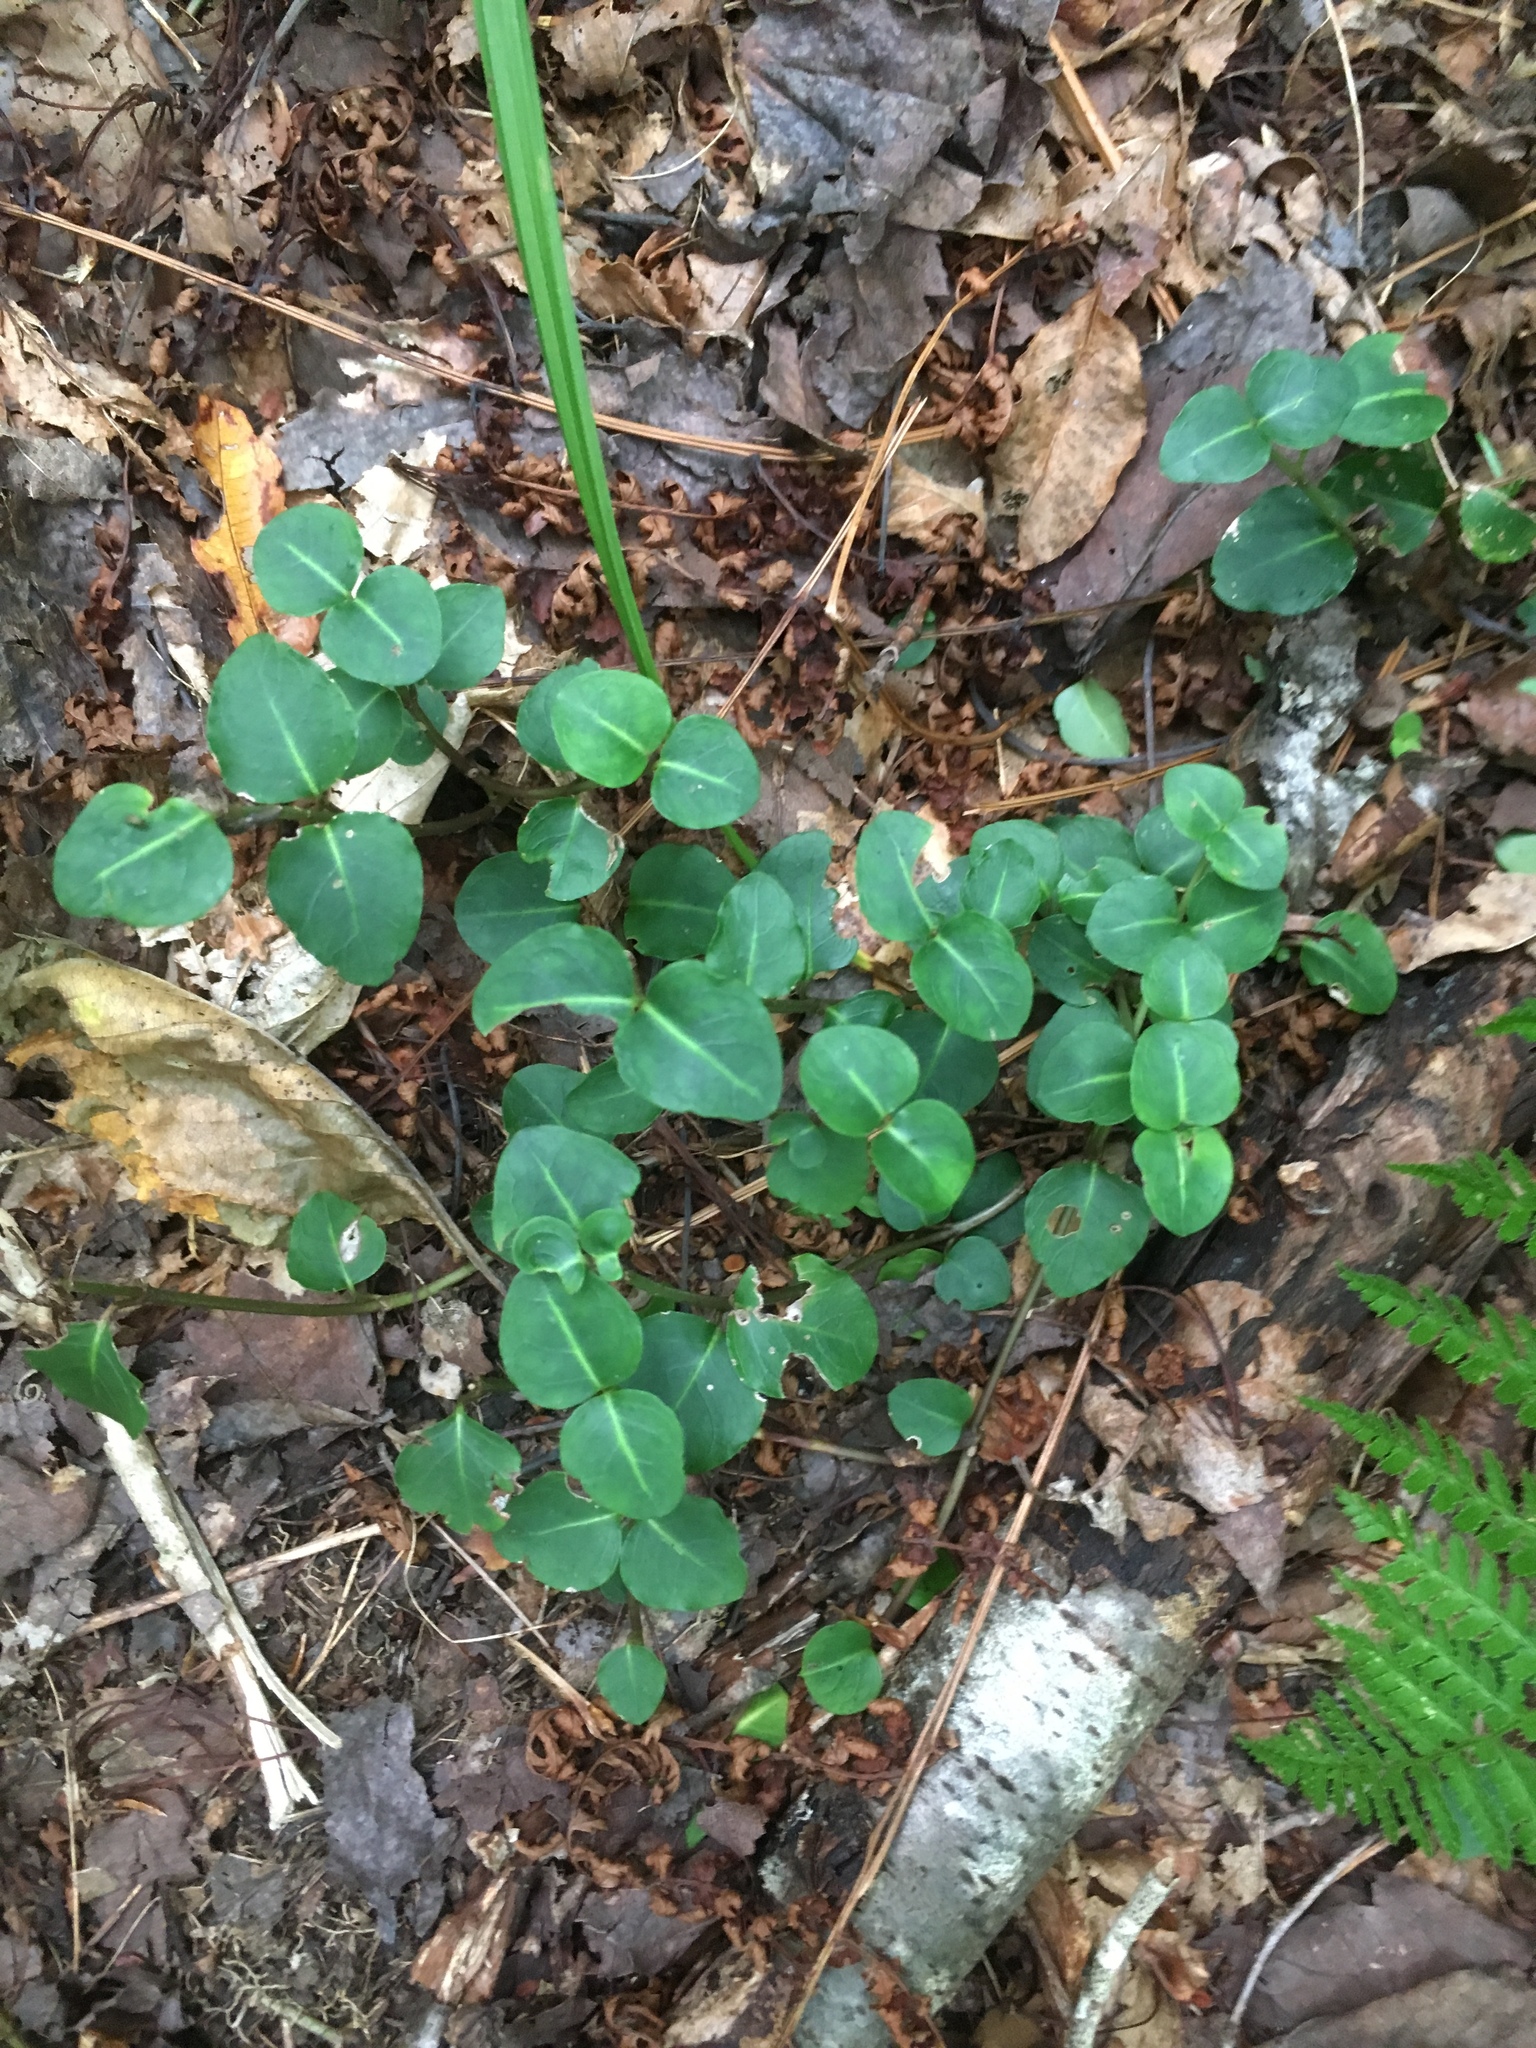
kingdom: Plantae
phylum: Tracheophyta
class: Magnoliopsida
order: Gentianales
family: Rubiaceae
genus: Mitchella
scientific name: Mitchella repens
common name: Partridge-berry
